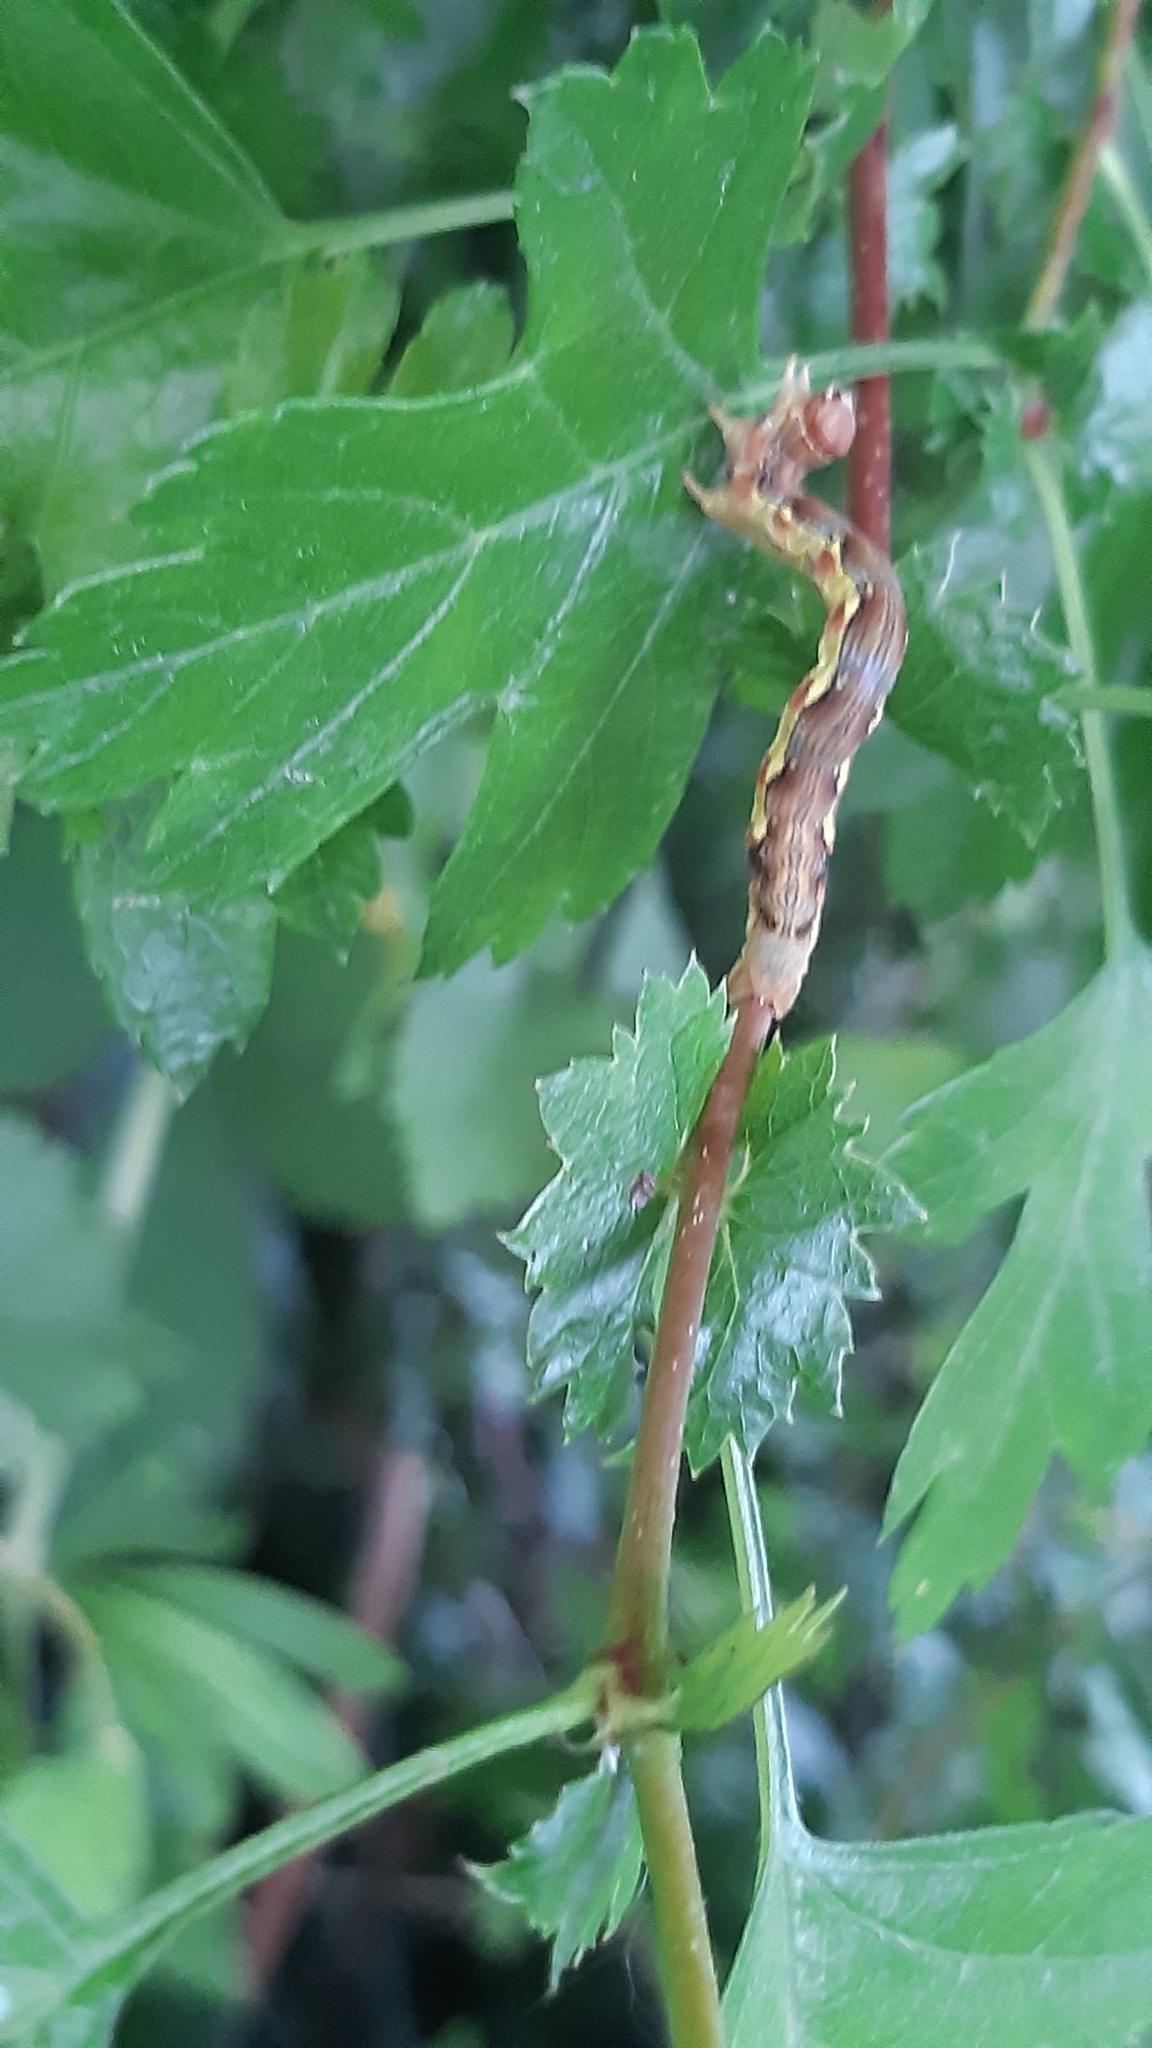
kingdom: Animalia
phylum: Arthropoda
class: Insecta
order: Lepidoptera
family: Geometridae
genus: Erannis
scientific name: Erannis defoliaria
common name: Mottled umber
